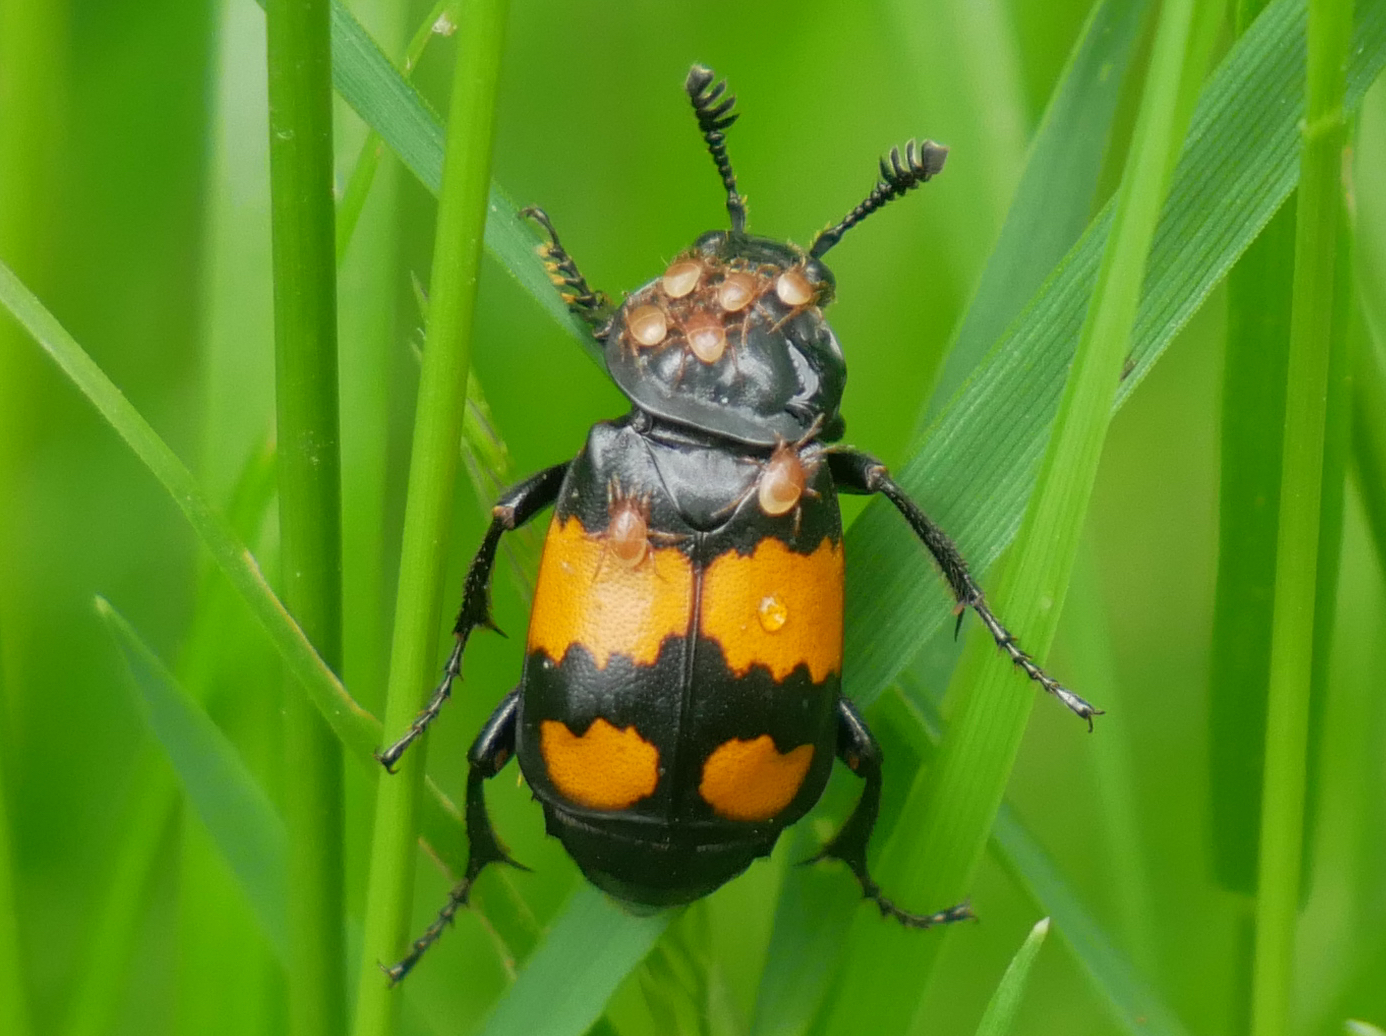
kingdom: Animalia
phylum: Arthropoda
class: Insecta
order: Coleoptera
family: Staphylinidae
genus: Nicrophorus
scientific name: Nicrophorus vespilloides
